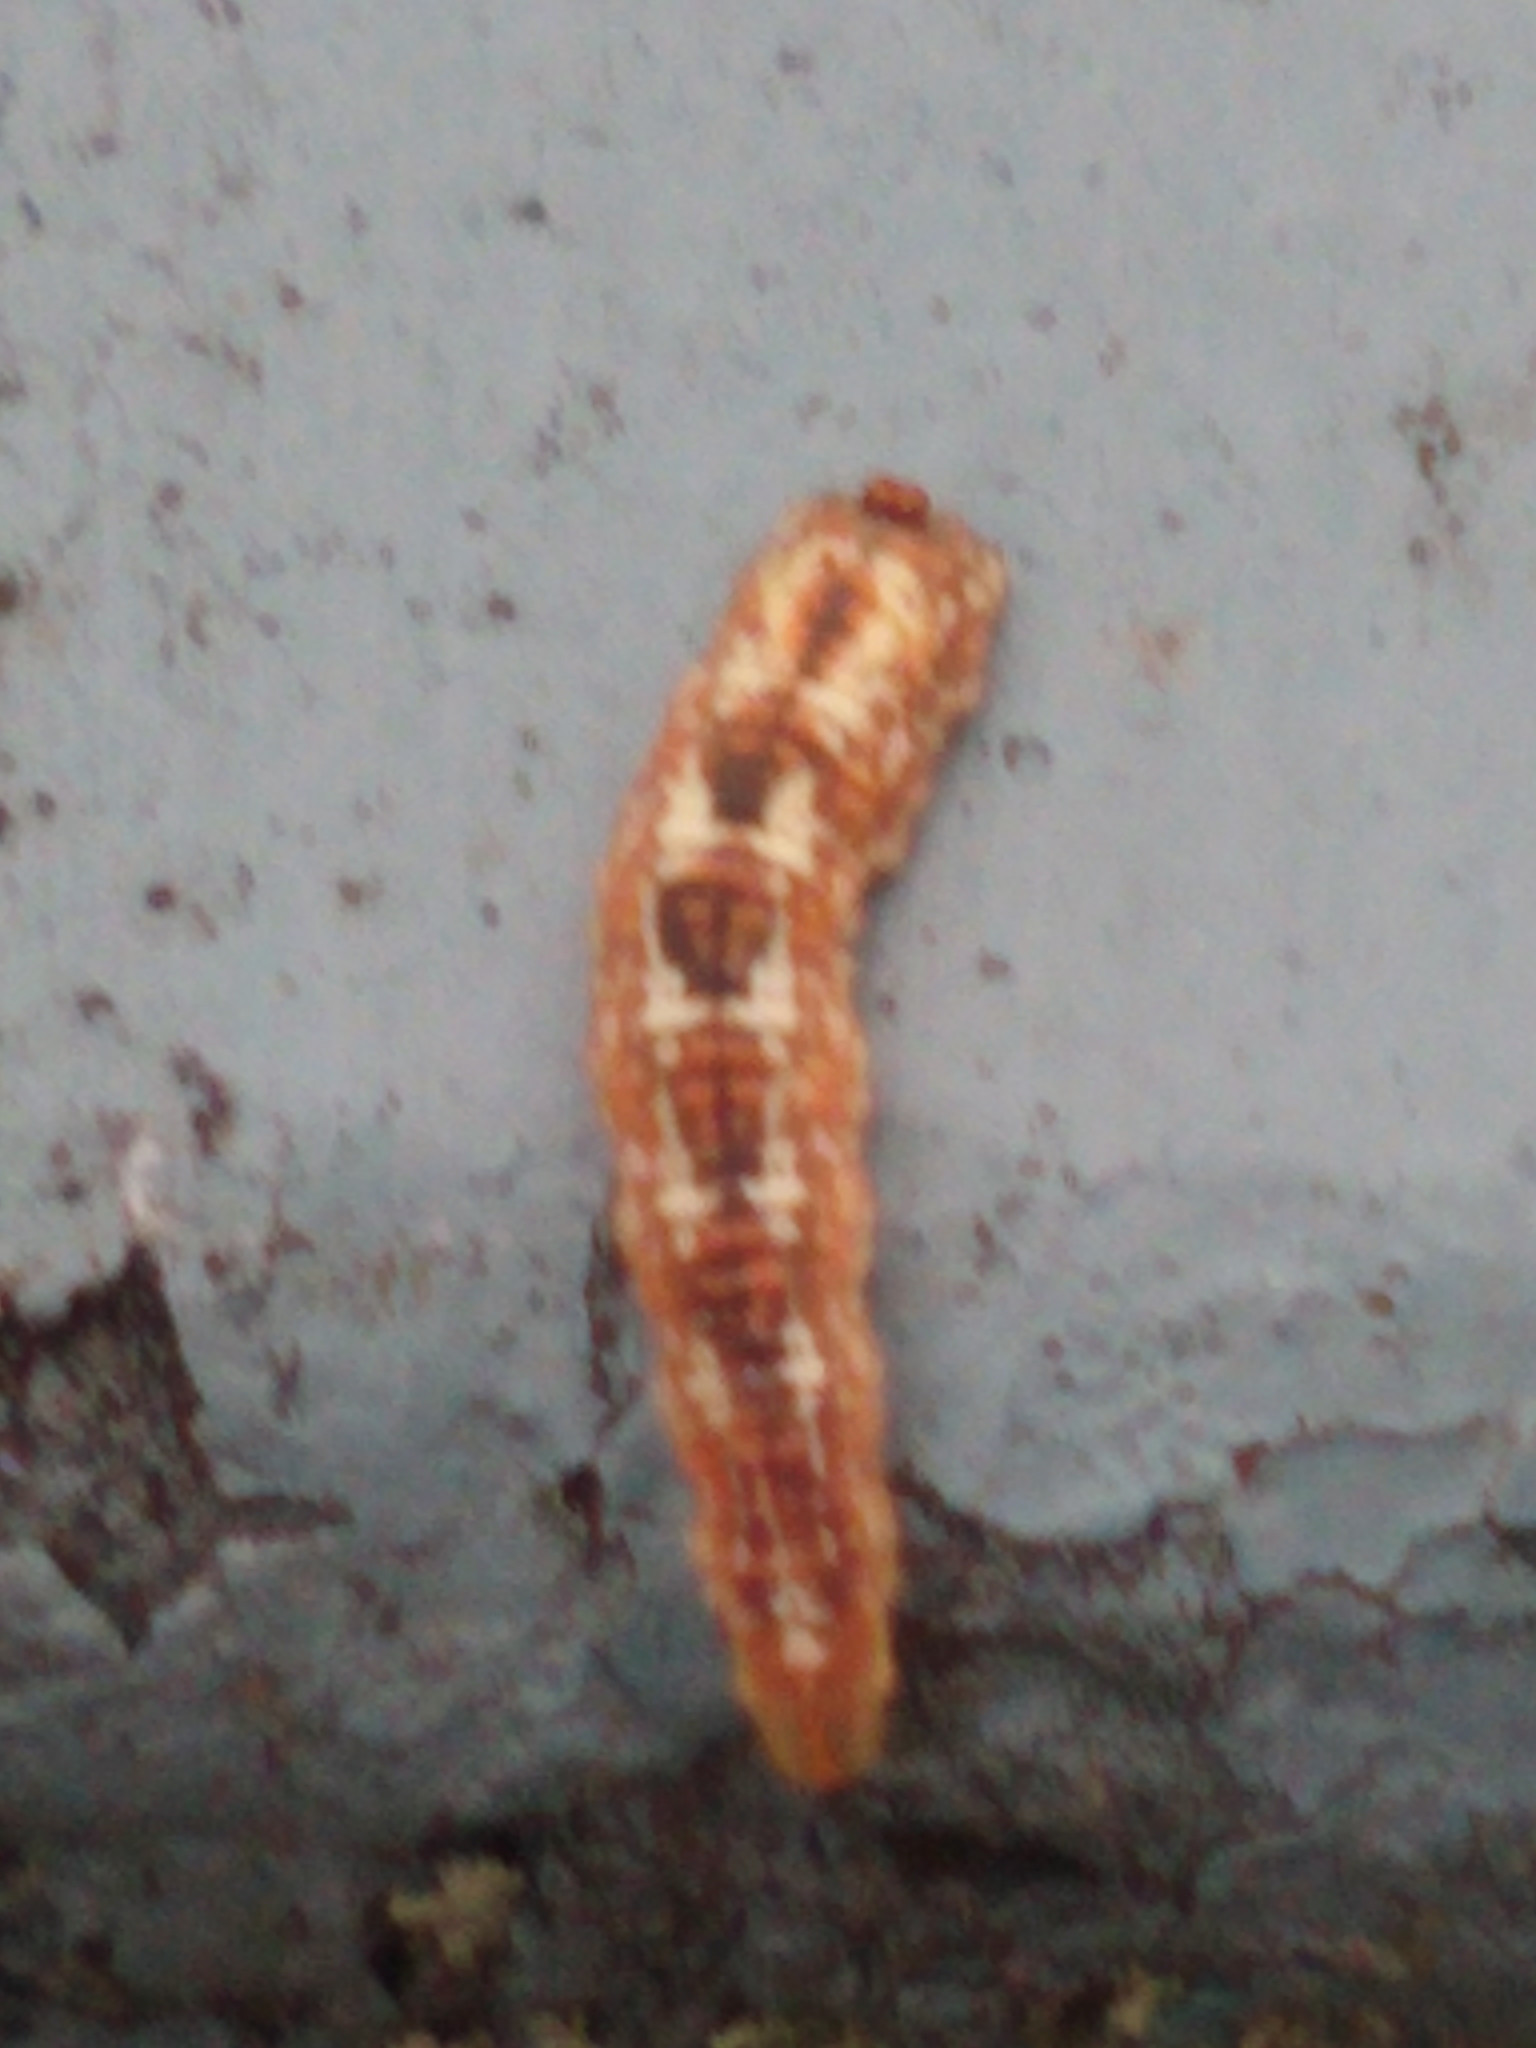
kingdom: Animalia
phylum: Arthropoda
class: Insecta
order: Diptera
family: Syrphidae
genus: Syrphus
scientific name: Syrphus
